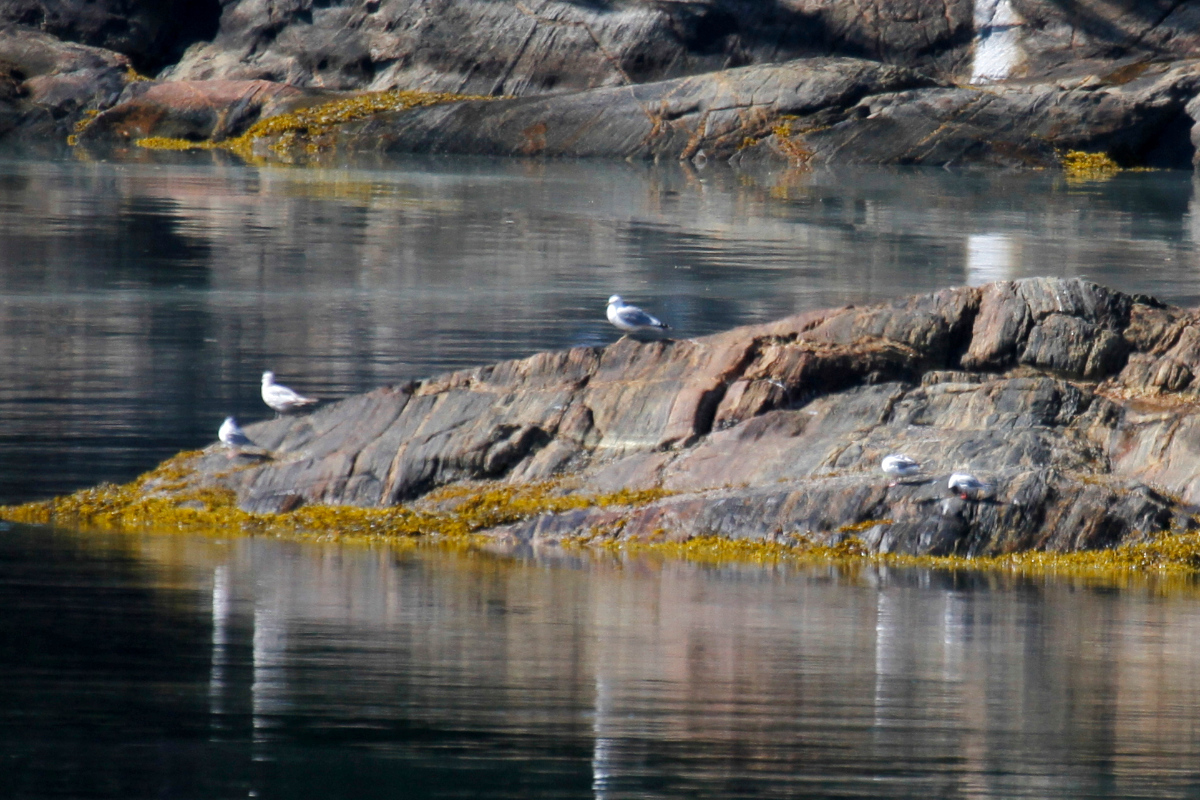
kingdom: Animalia
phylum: Chordata
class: Aves
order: Charadriiformes
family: Laridae
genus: Chroicocephalus
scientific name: Chroicocephalus philadelphia
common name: Bonaparte's gull
